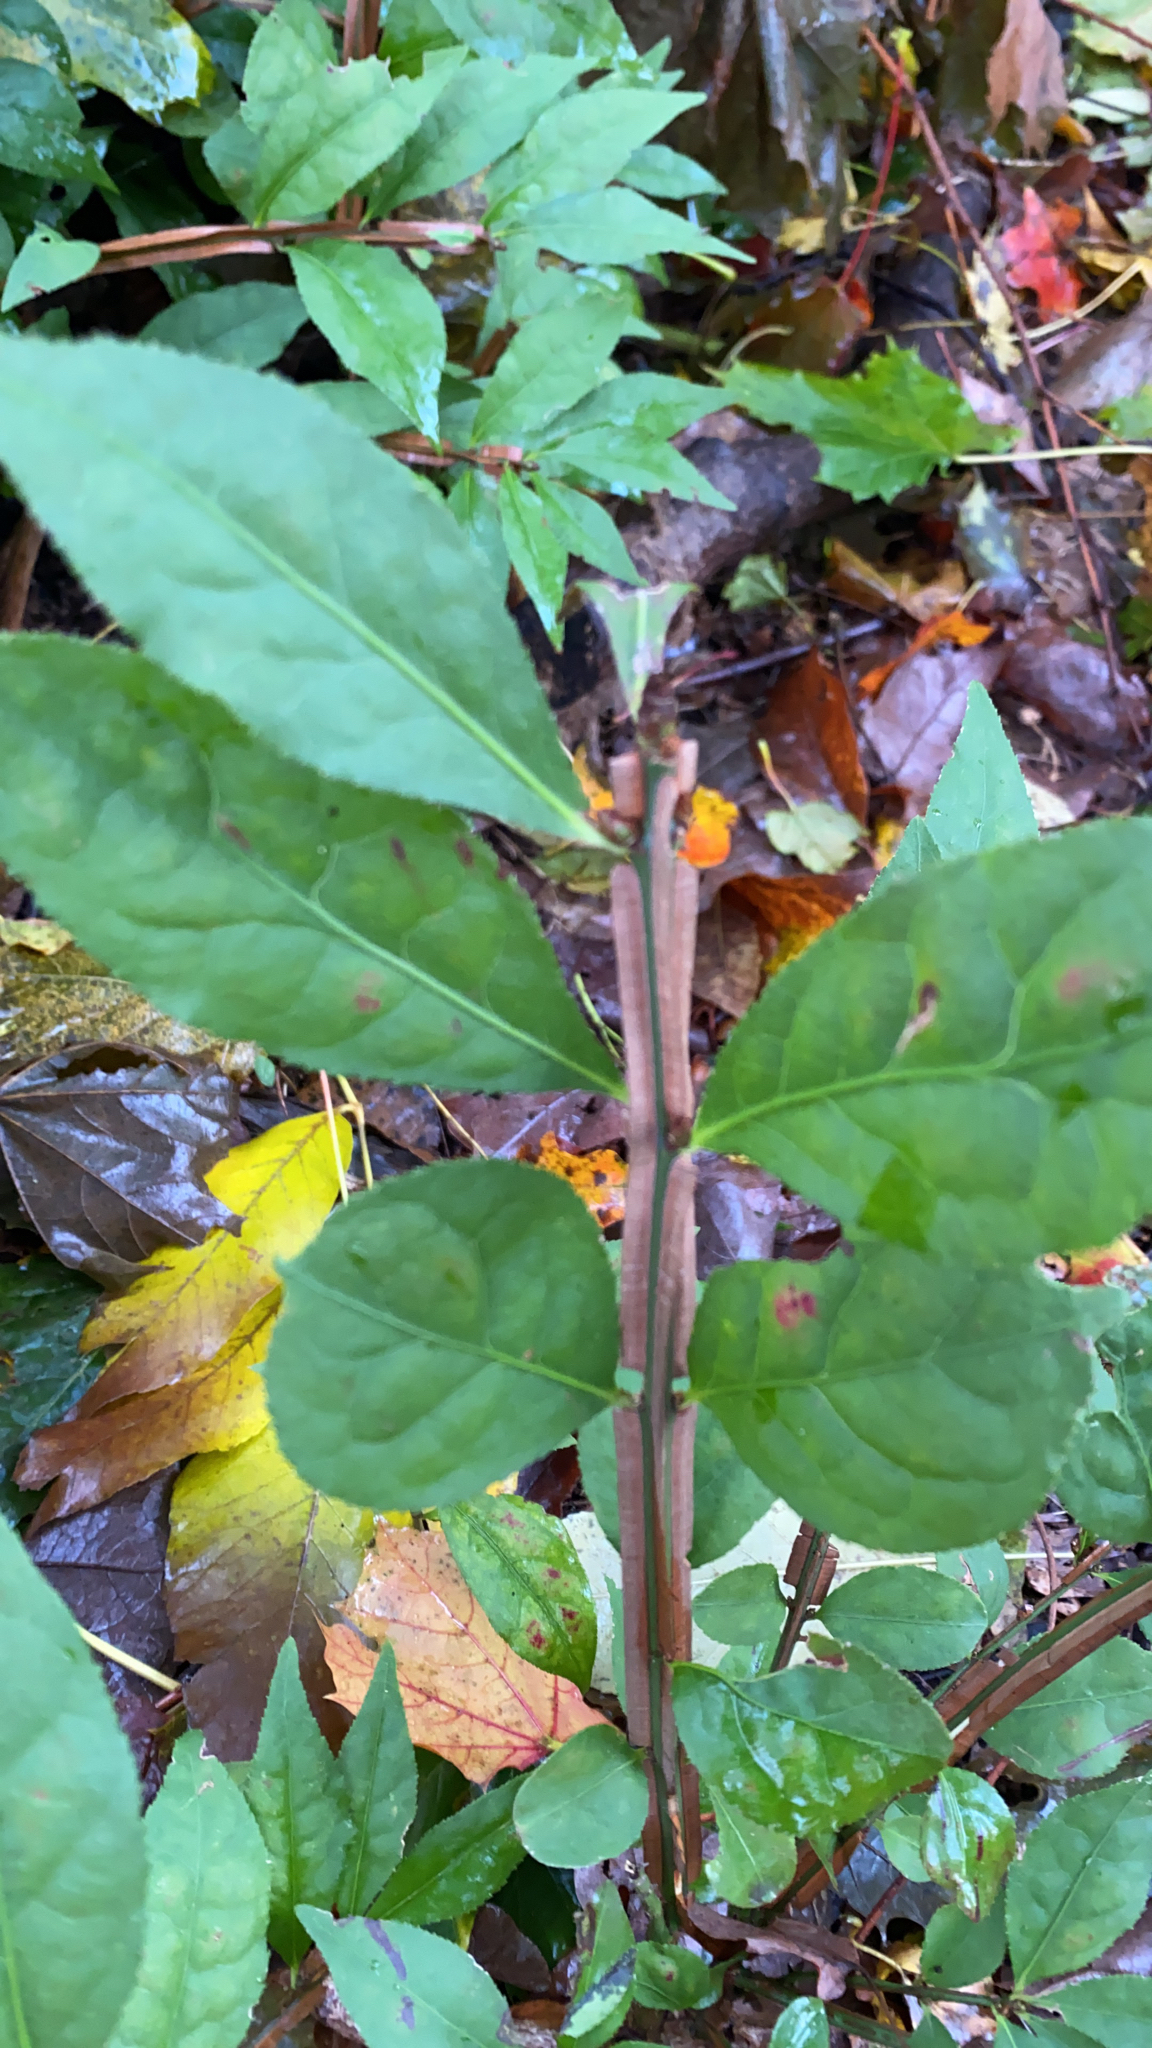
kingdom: Plantae
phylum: Tracheophyta
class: Magnoliopsida
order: Celastrales
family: Celastraceae
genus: Euonymus
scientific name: Euonymus alatus
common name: Winged euonymus
